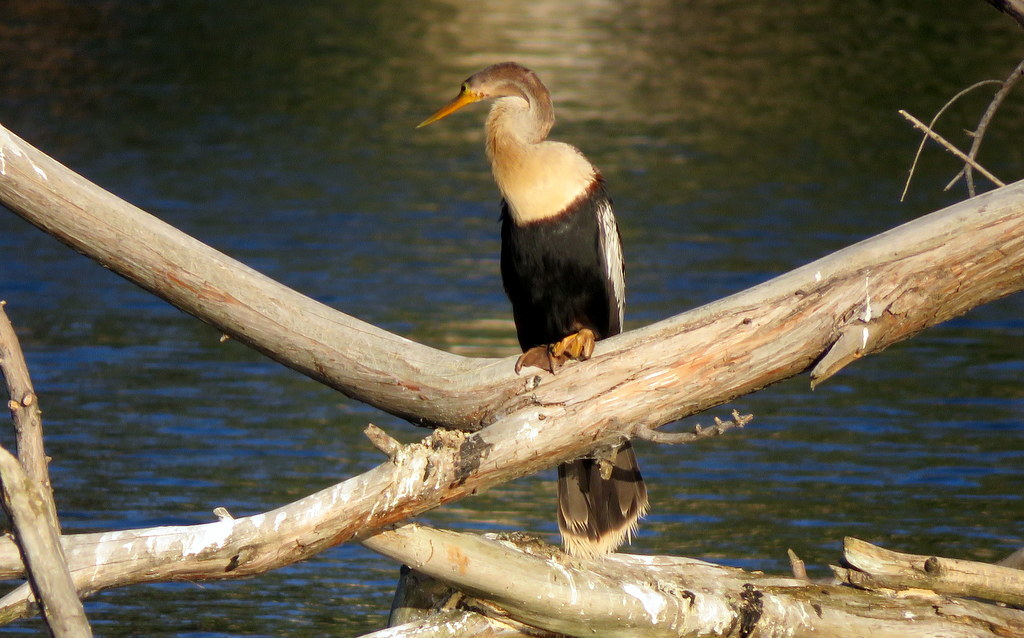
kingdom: Animalia
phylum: Chordata
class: Aves
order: Suliformes
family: Anhingidae
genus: Anhinga
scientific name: Anhinga anhinga
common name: Anhinga
